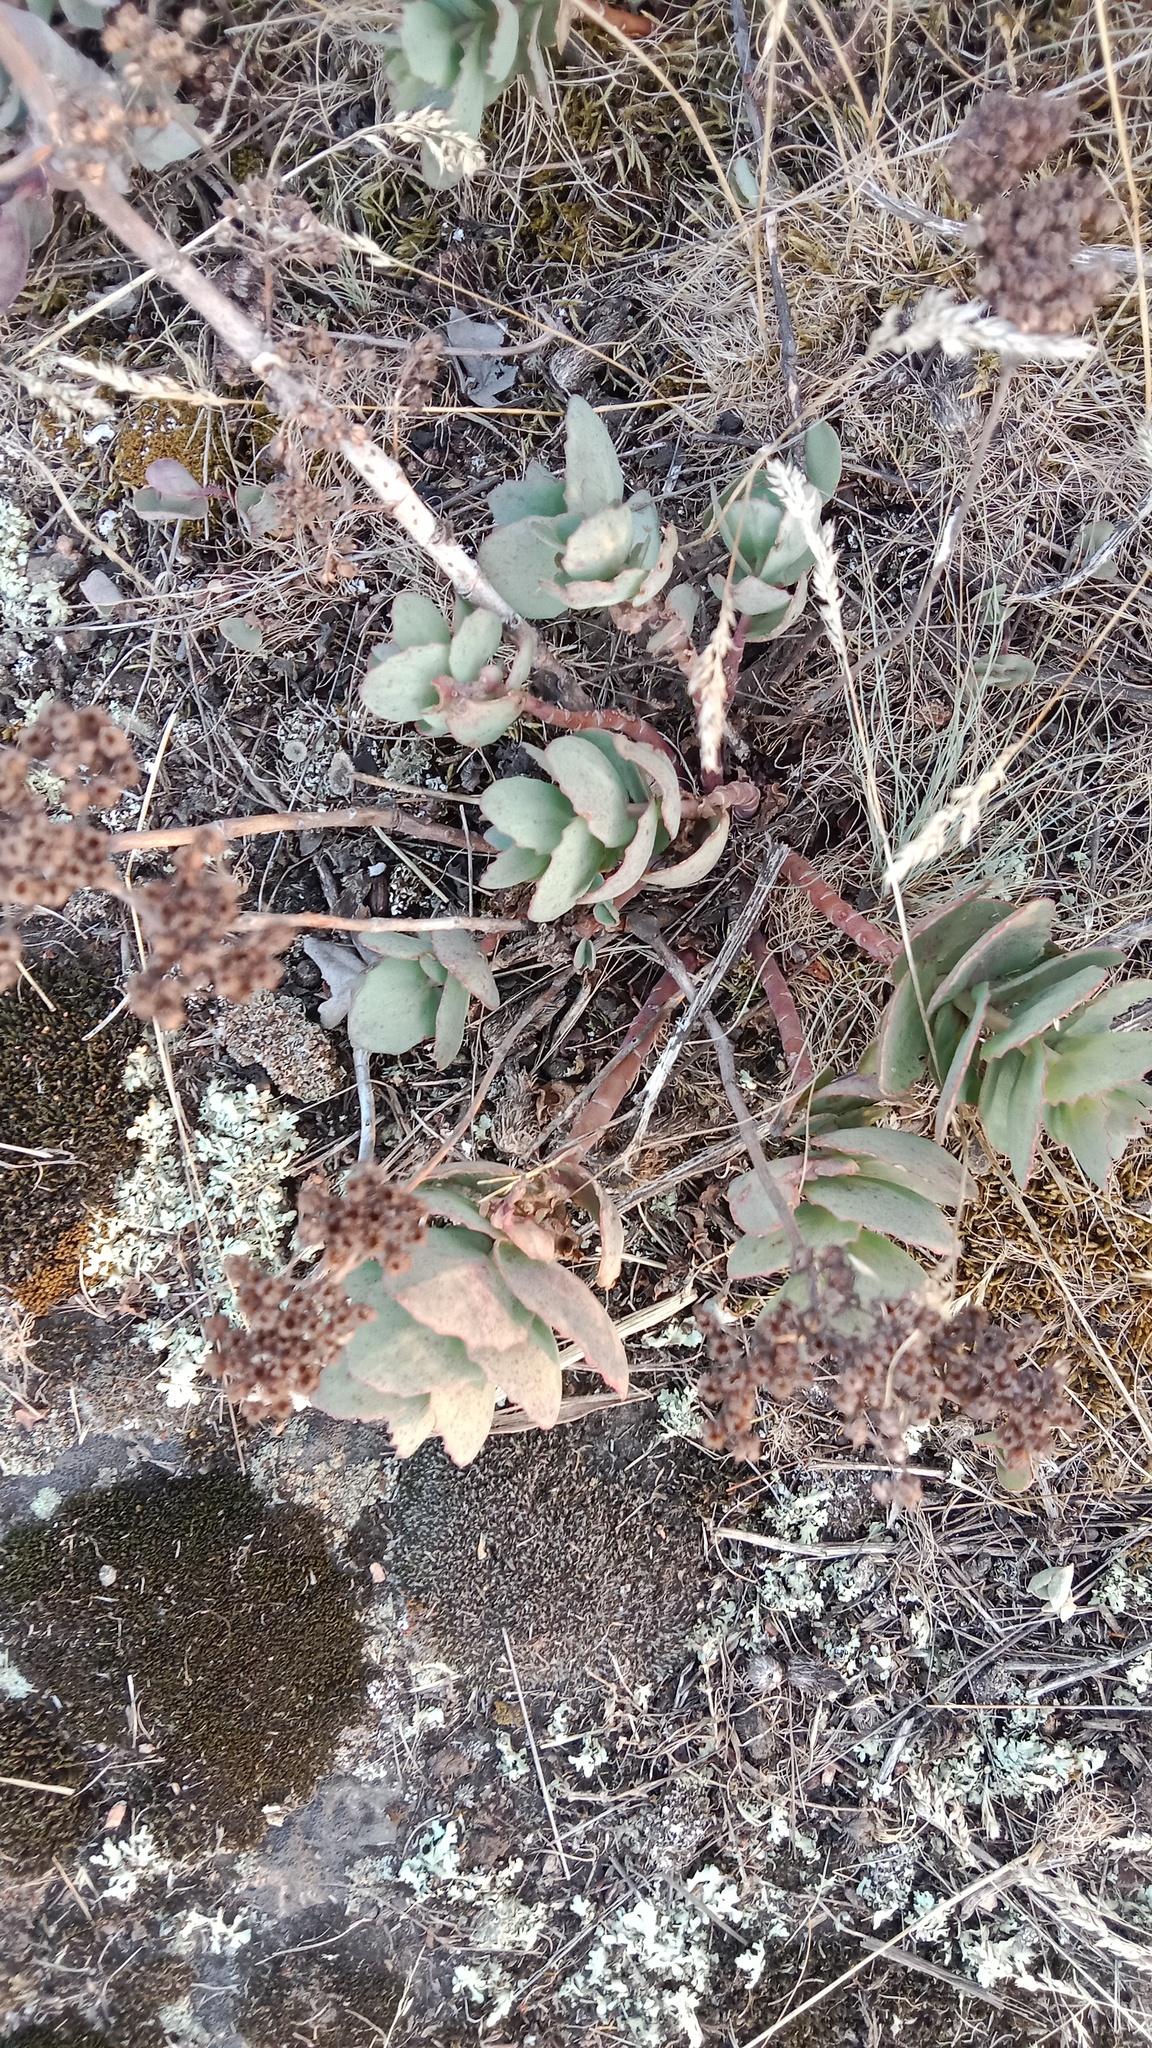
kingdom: Plantae
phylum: Tracheophyta
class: Magnoliopsida
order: Saxifragales
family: Crassulaceae
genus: Hylotelephium
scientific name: Hylotelephium maximum
